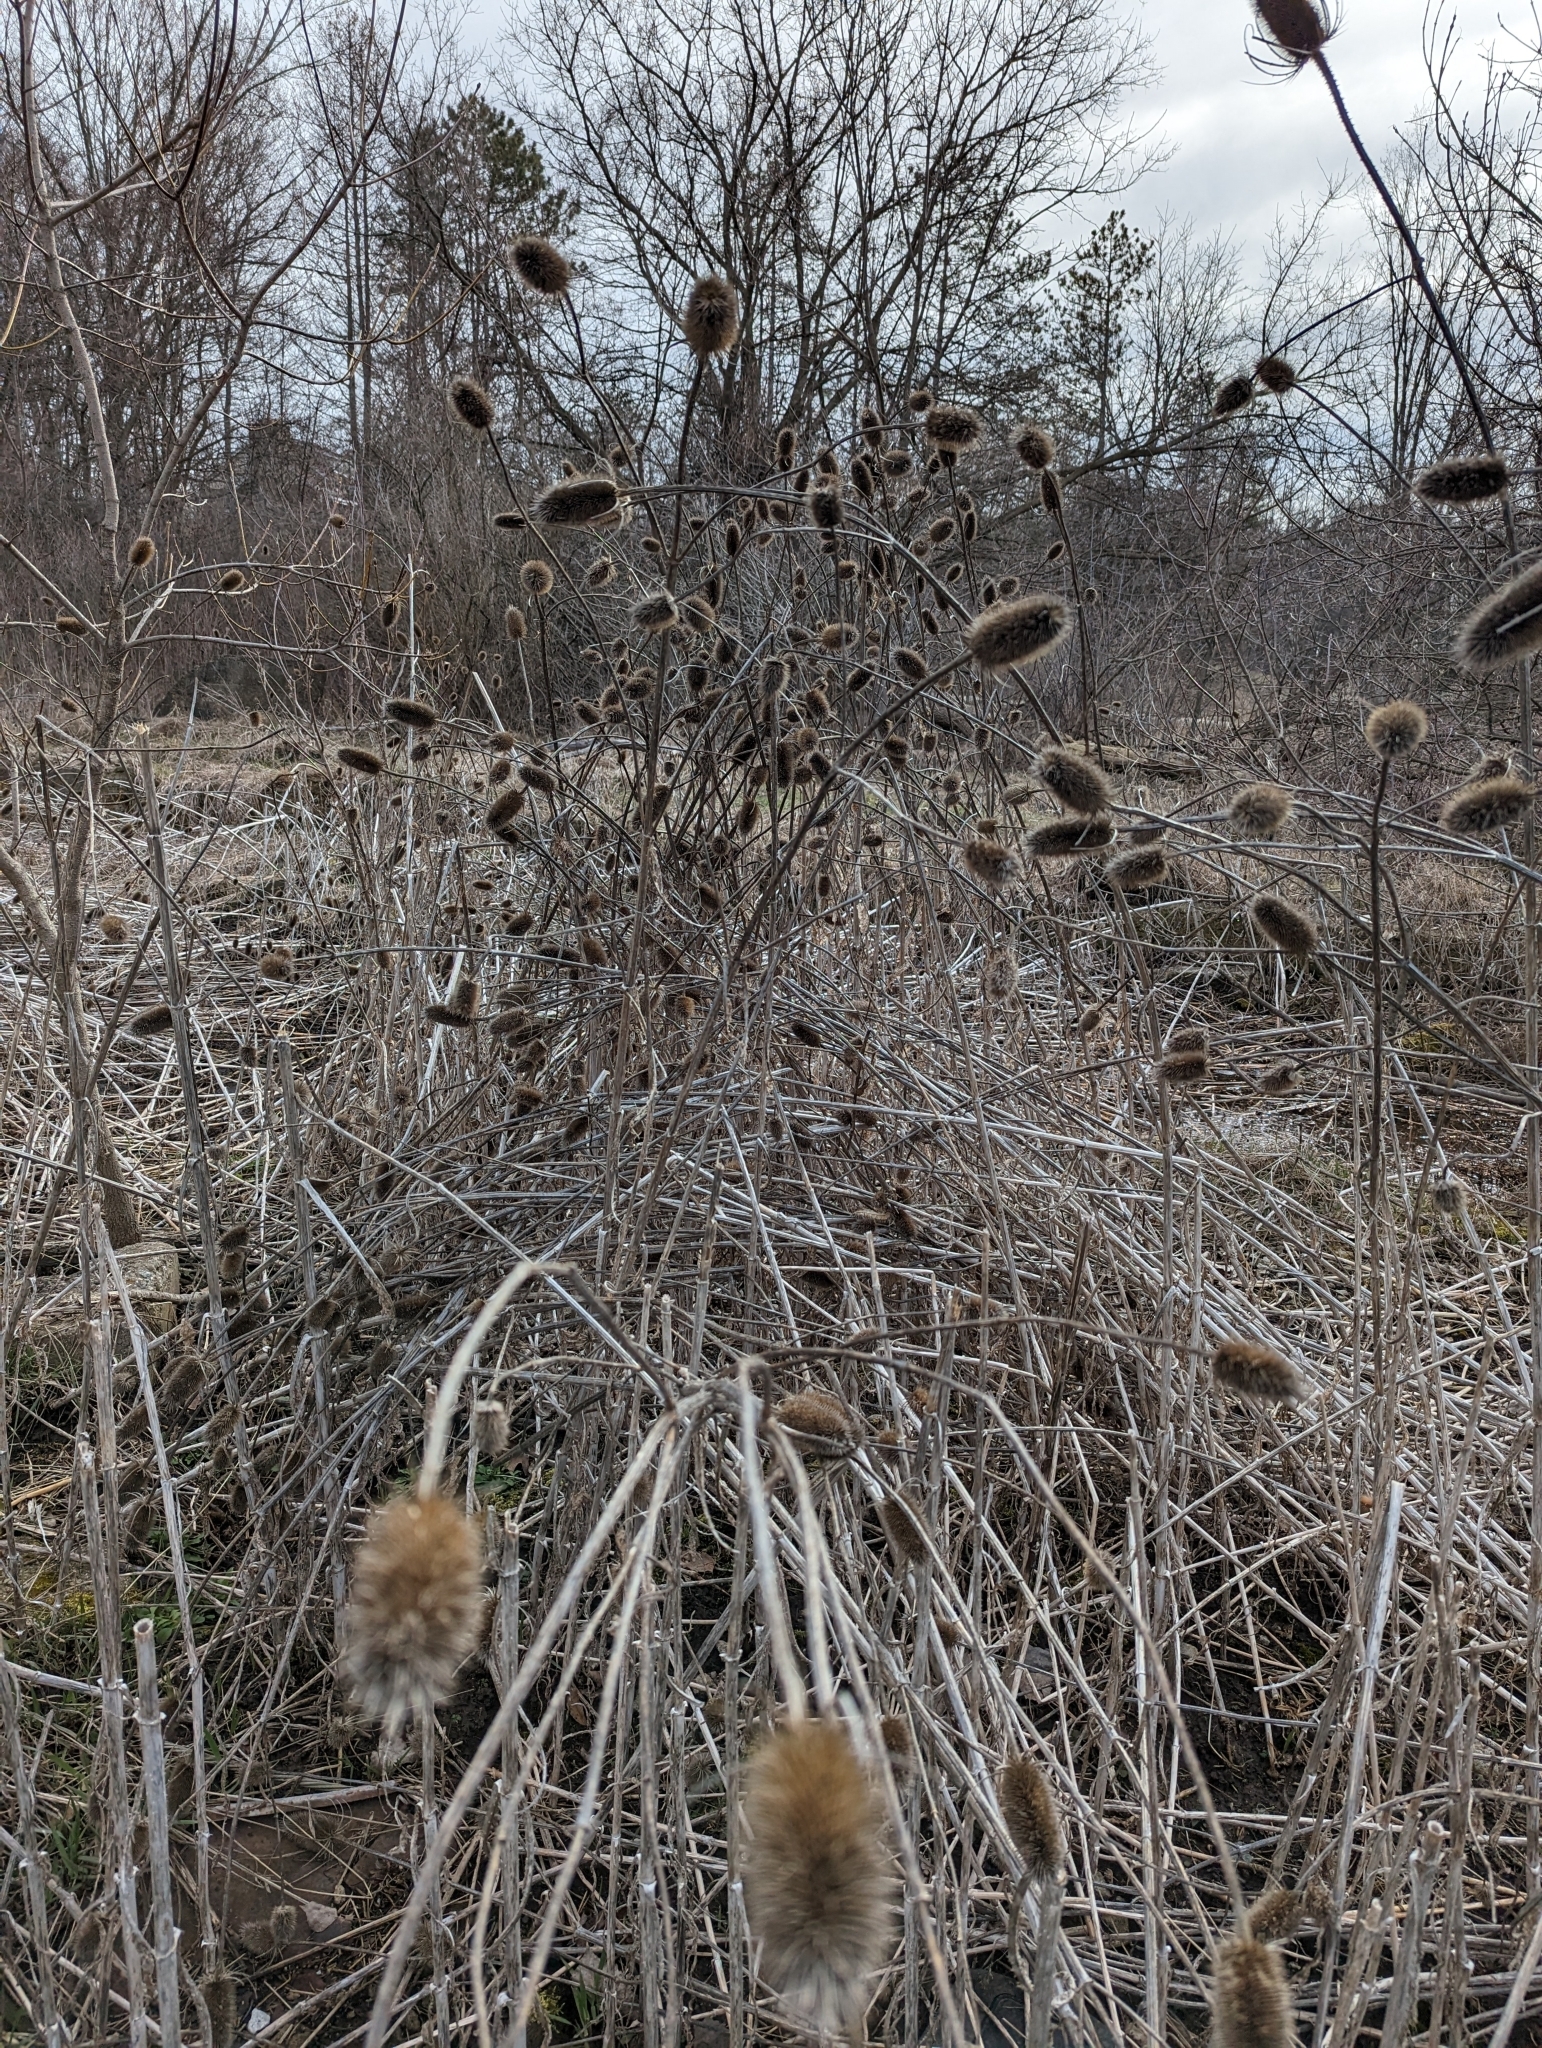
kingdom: Plantae
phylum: Tracheophyta
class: Magnoliopsida
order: Dipsacales
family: Caprifoliaceae
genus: Dipsacus
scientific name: Dipsacus fullonum
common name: Teasel
